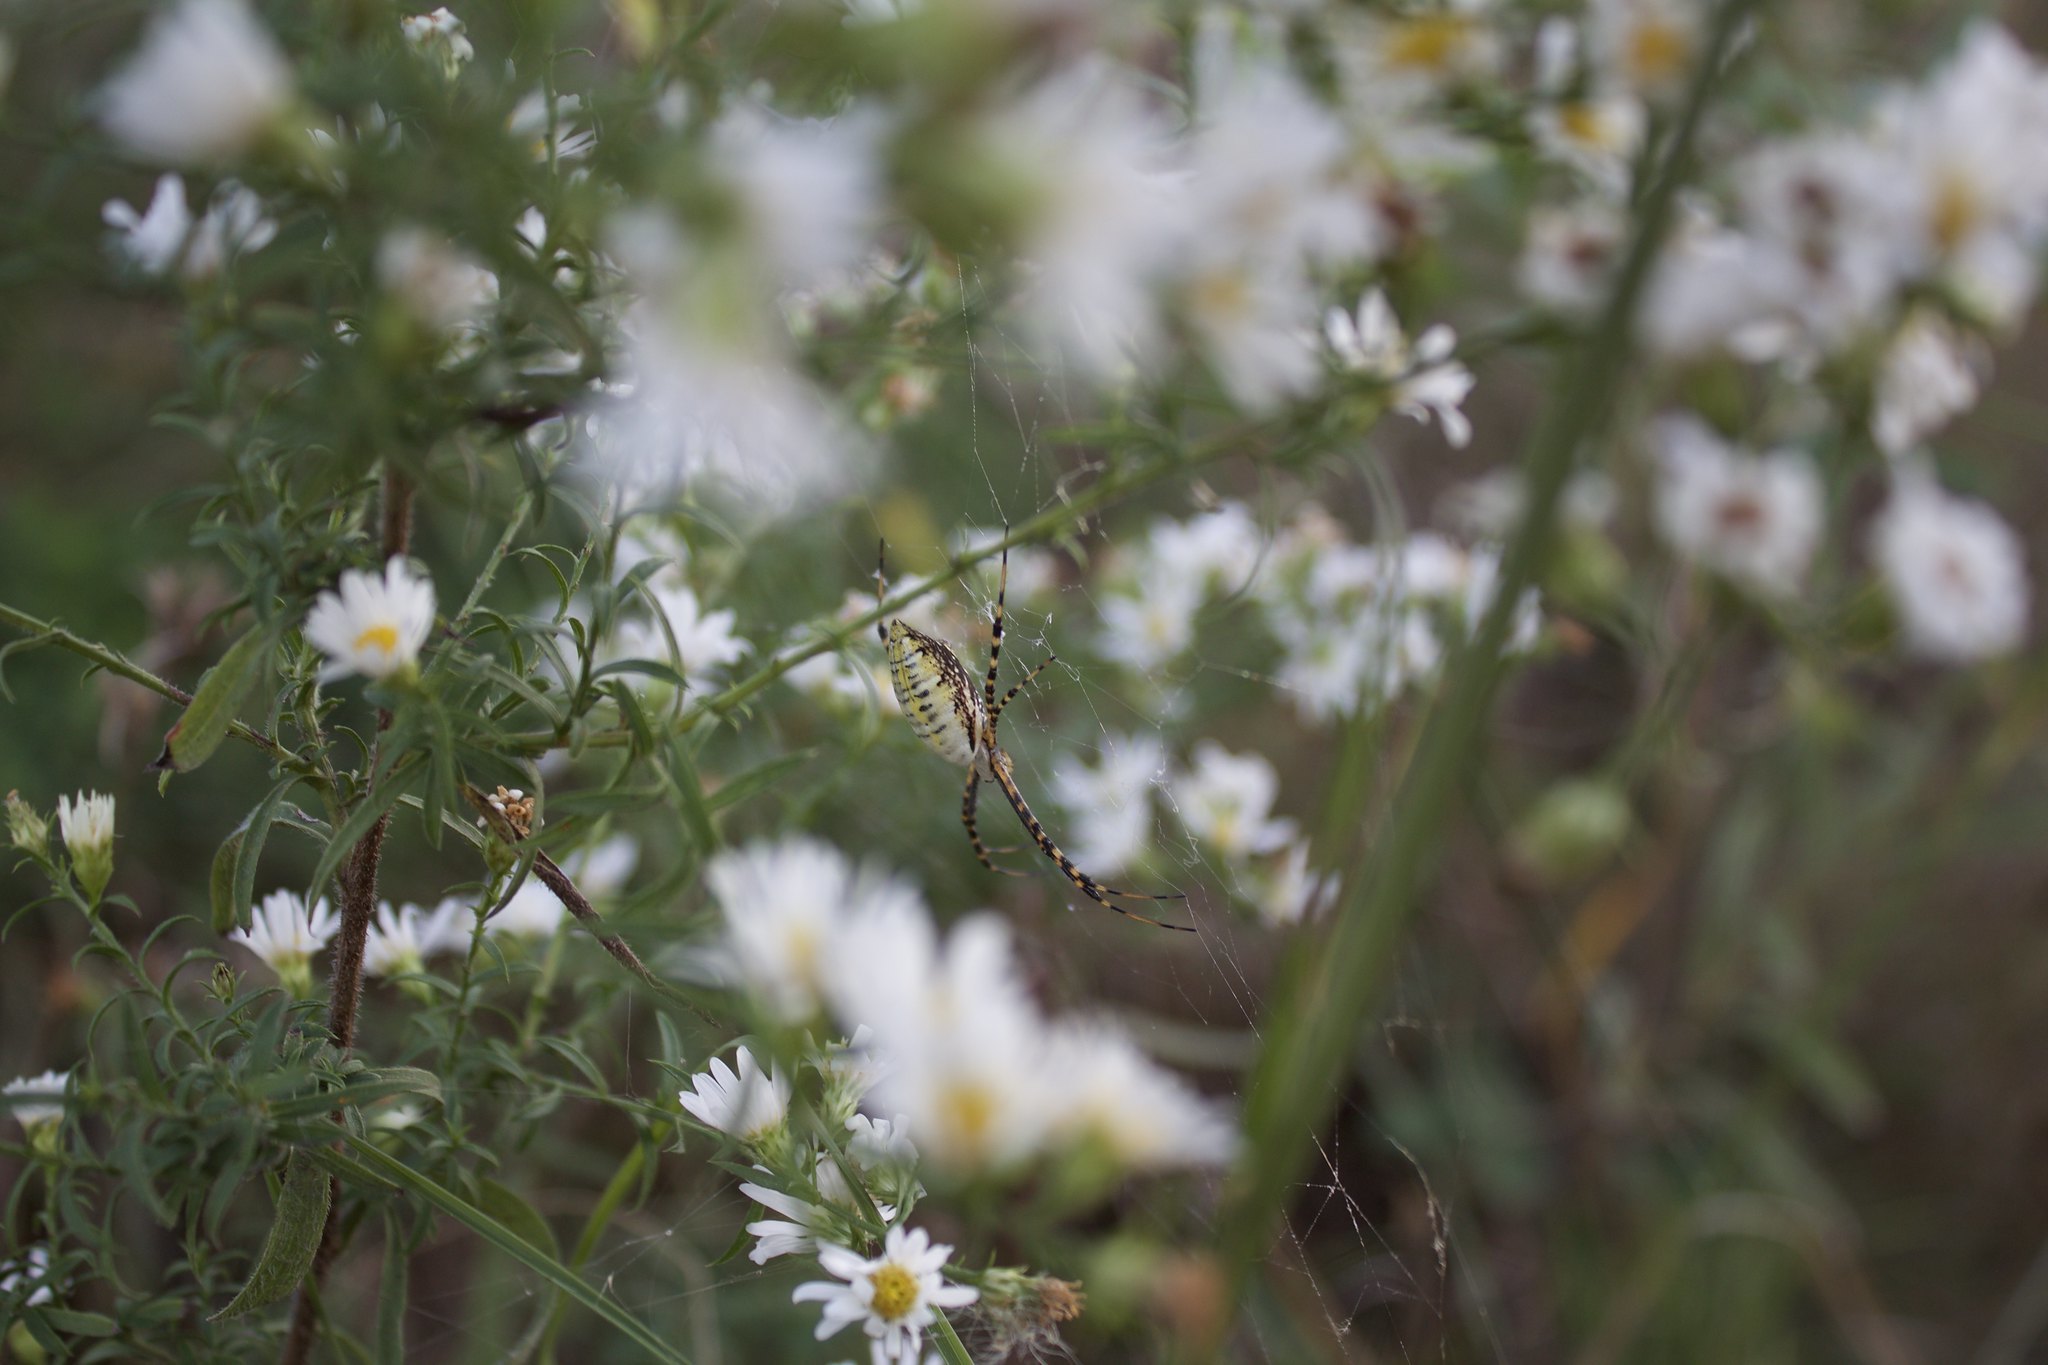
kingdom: Animalia
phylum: Arthropoda
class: Arachnida
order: Araneae
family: Araneidae
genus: Argiope
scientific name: Argiope trifasciata
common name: Banded garden spider
